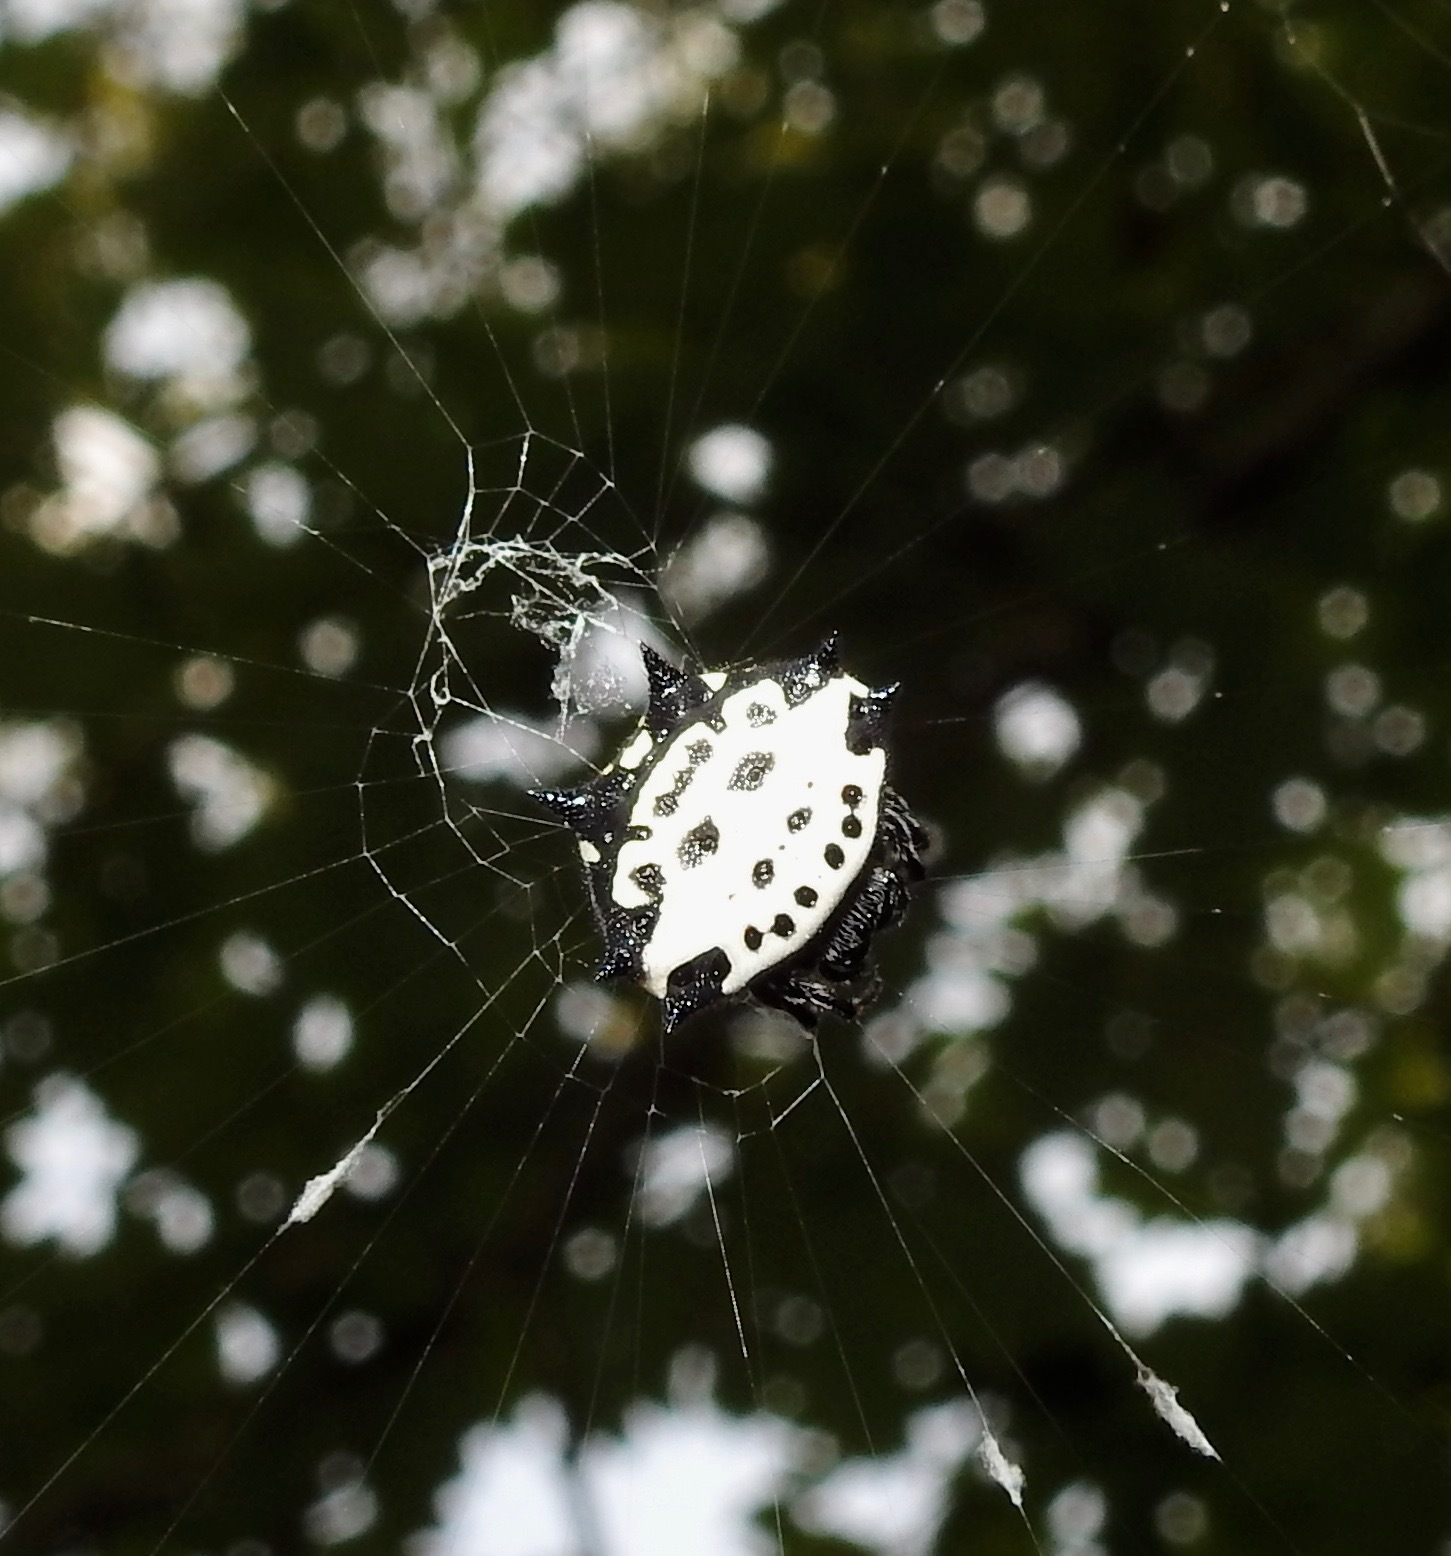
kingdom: Animalia
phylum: Arthropoda
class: Arachnida
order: Araneae
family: Araneidae
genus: Gasteracantha
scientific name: Gasteracantha cancriformis
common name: Orb weavers
